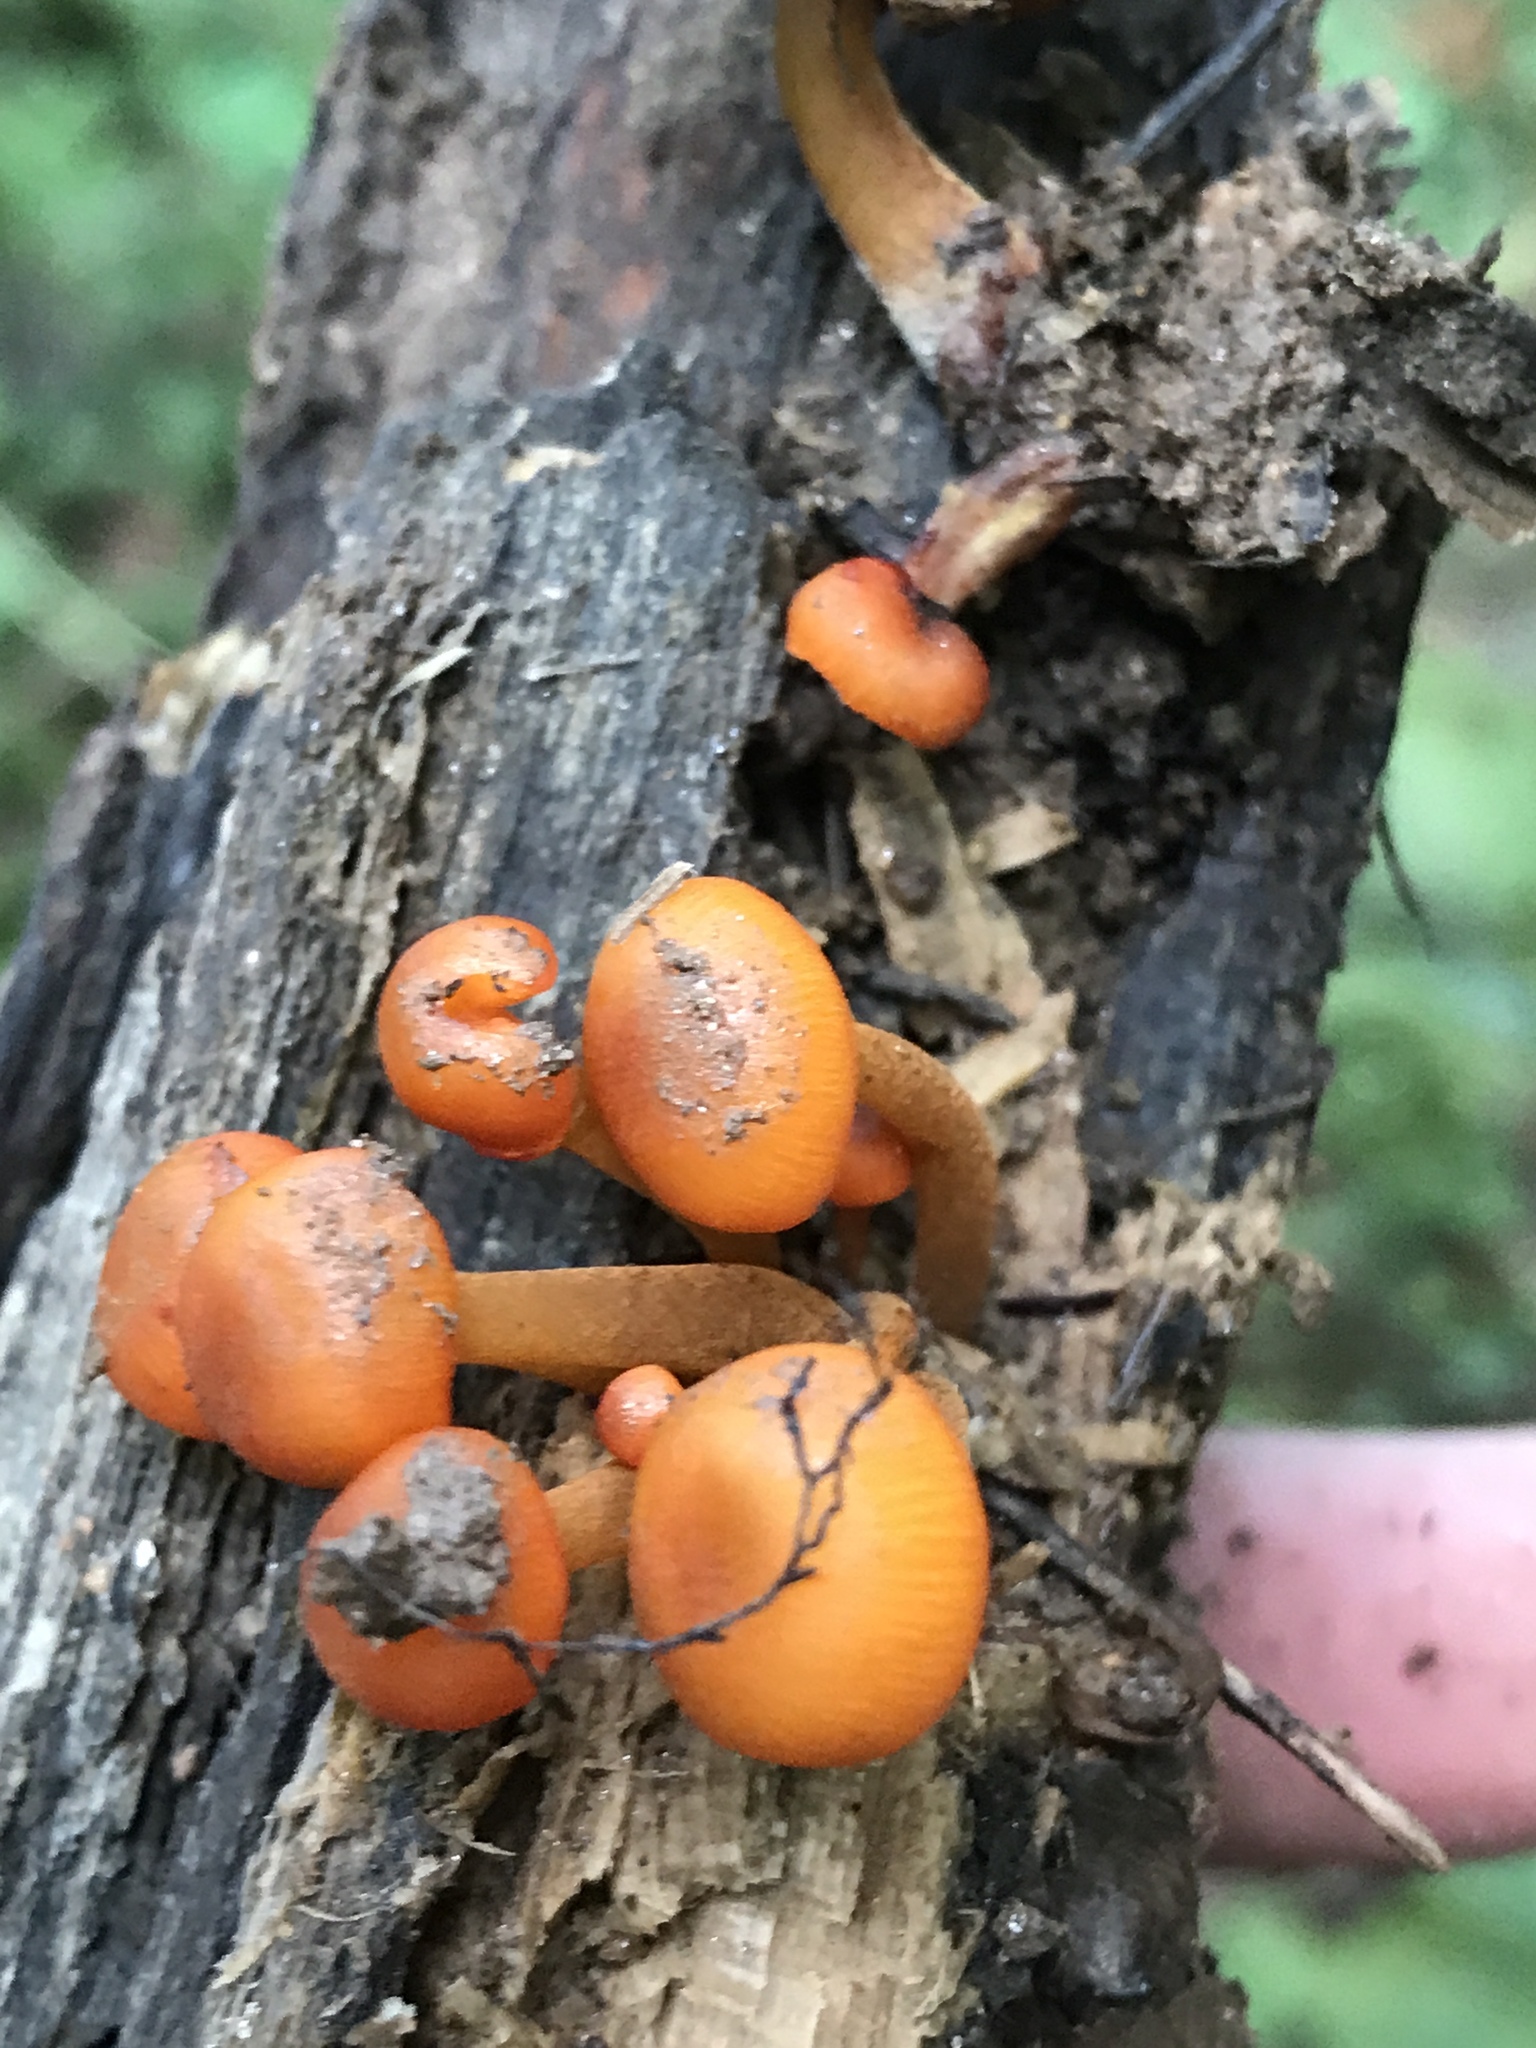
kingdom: Fungi
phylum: Basidiomycota
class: Agaricomycetes
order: Agaricales
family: Mycenaceae
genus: Mycena
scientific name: Mycena leaiana
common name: Orange mycena
